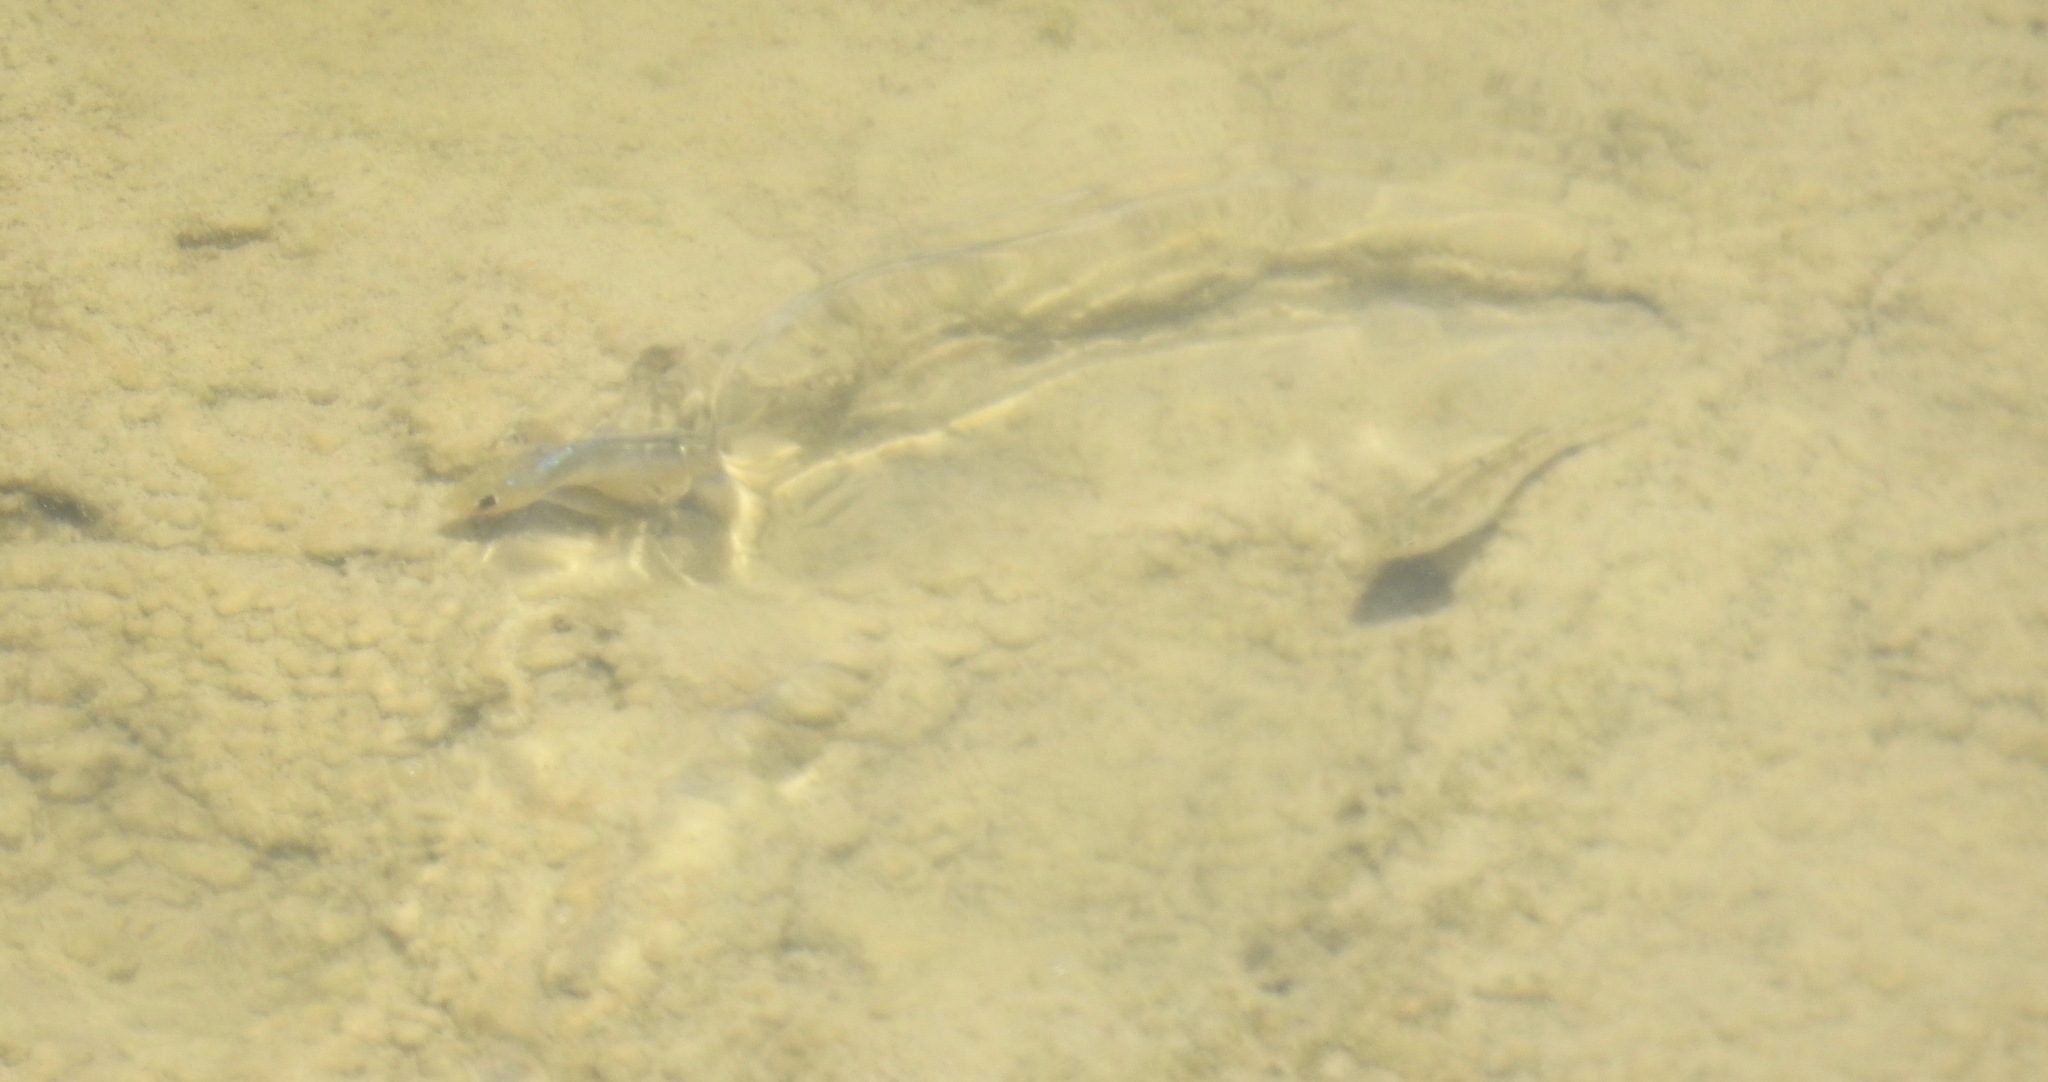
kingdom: Animalia
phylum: Chordata
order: Cyprinodontiformes
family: Cyprinodontidae
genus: Cyprinodon
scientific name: Cyprinodon pecosensis
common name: Pecos pupfish
